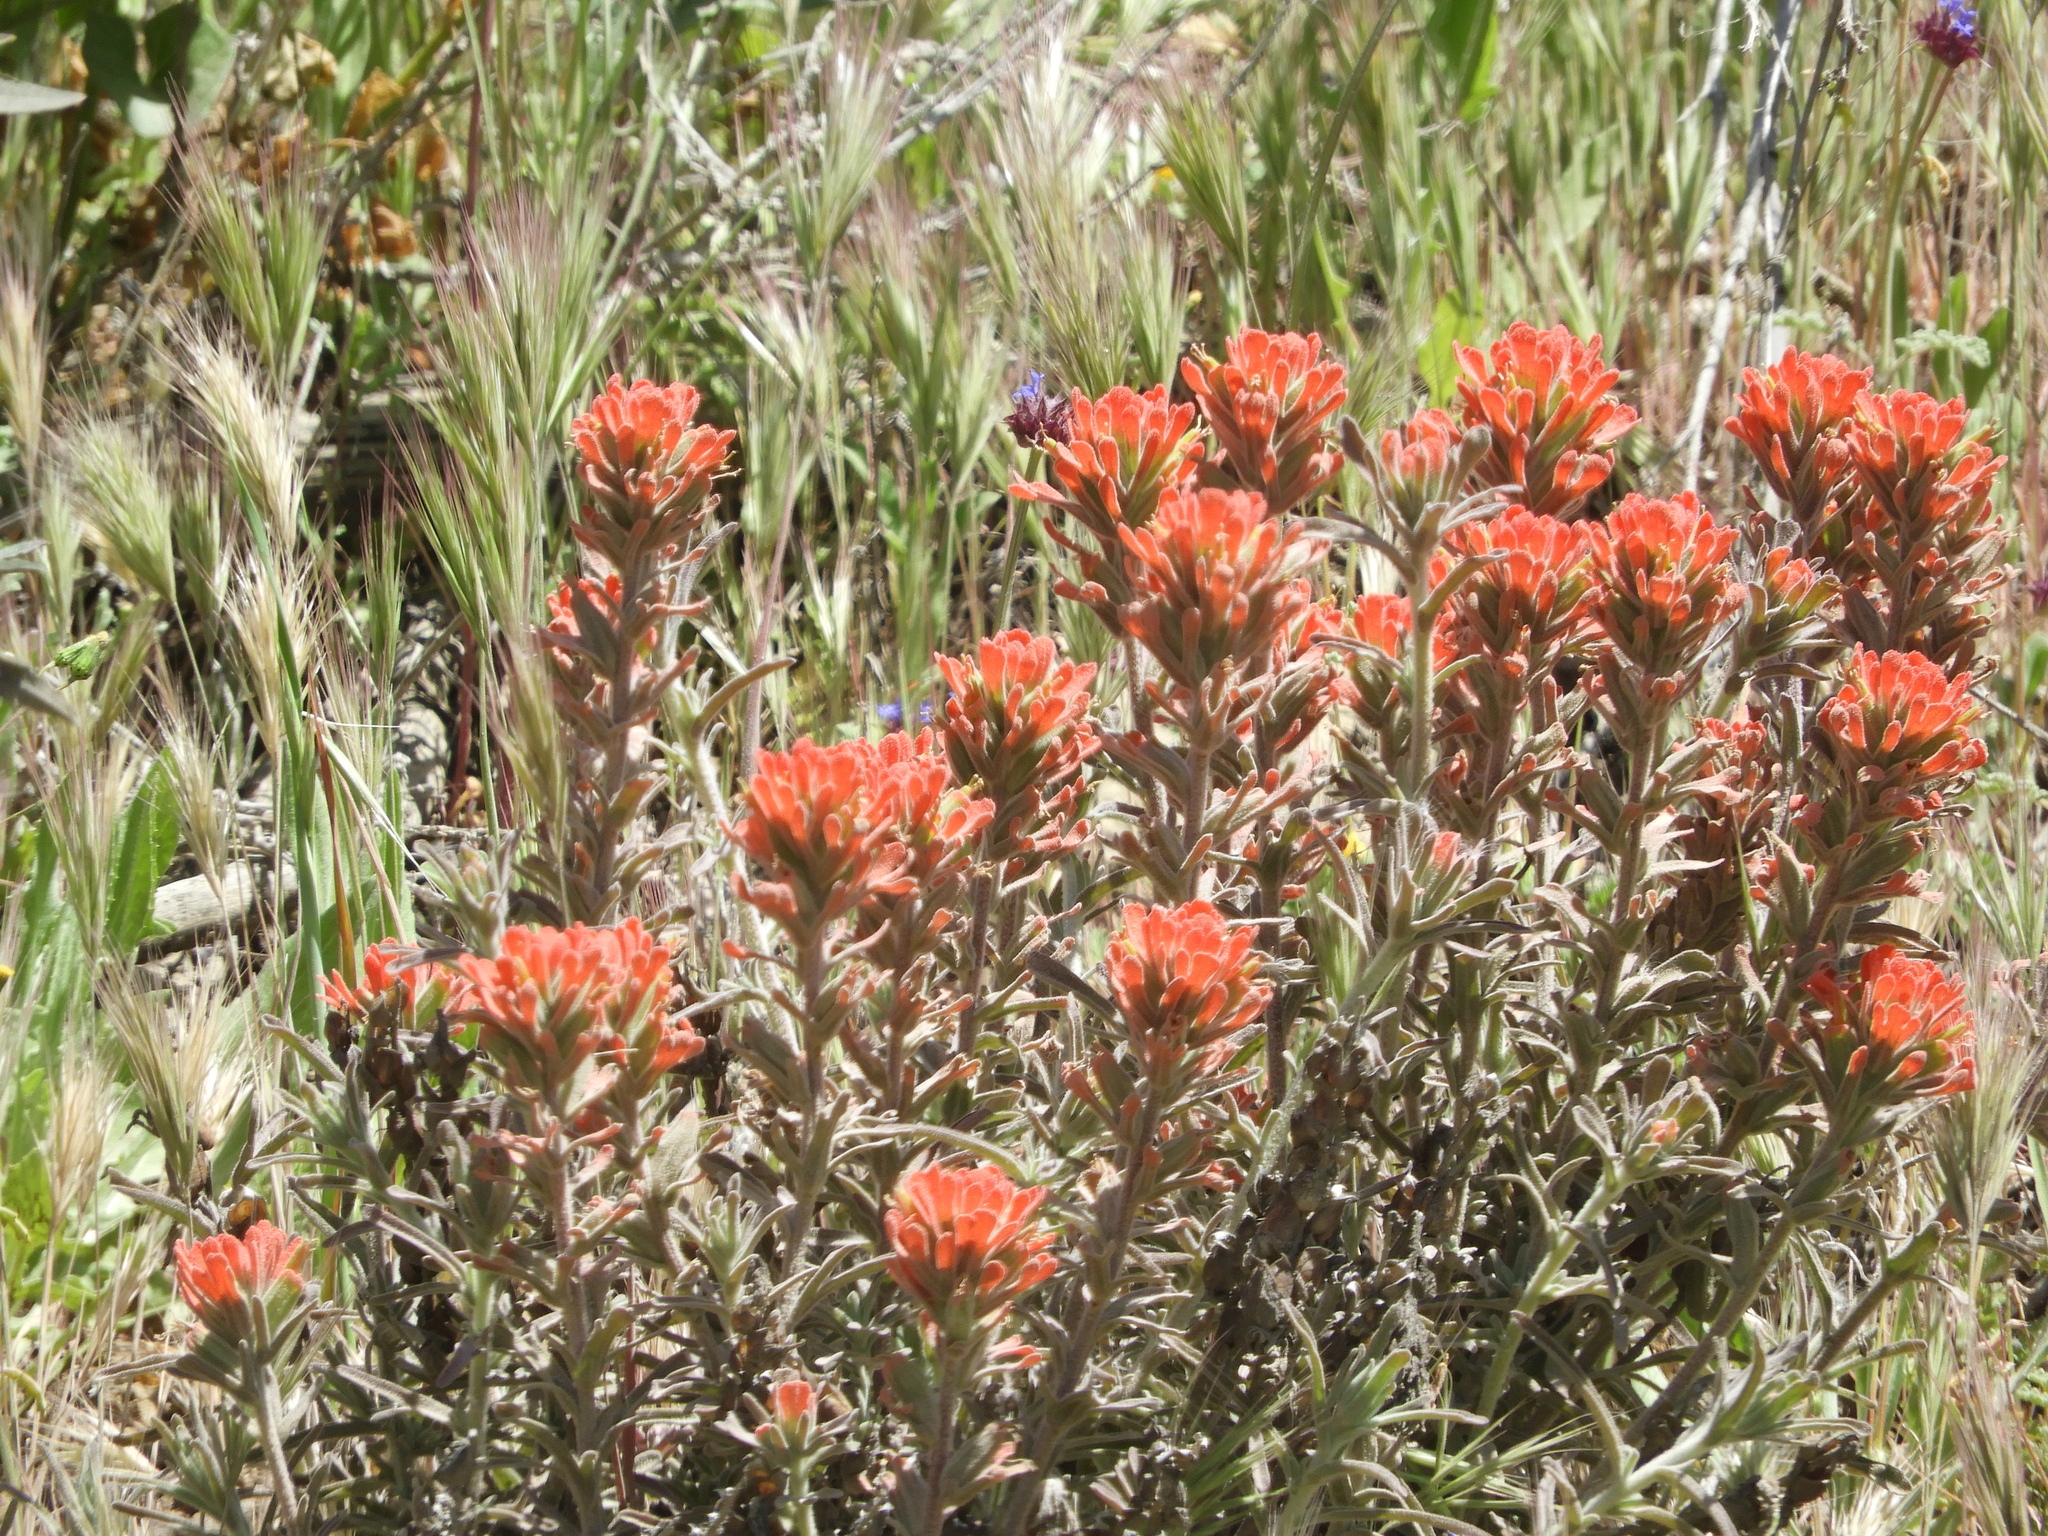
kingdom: Plantae
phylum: Tracheophyta
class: Magnoliopsida
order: Lamiales
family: Orobanchaceae
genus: Castilleja
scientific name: Castilleja foliolosa
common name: Woolly indian paintbrush
